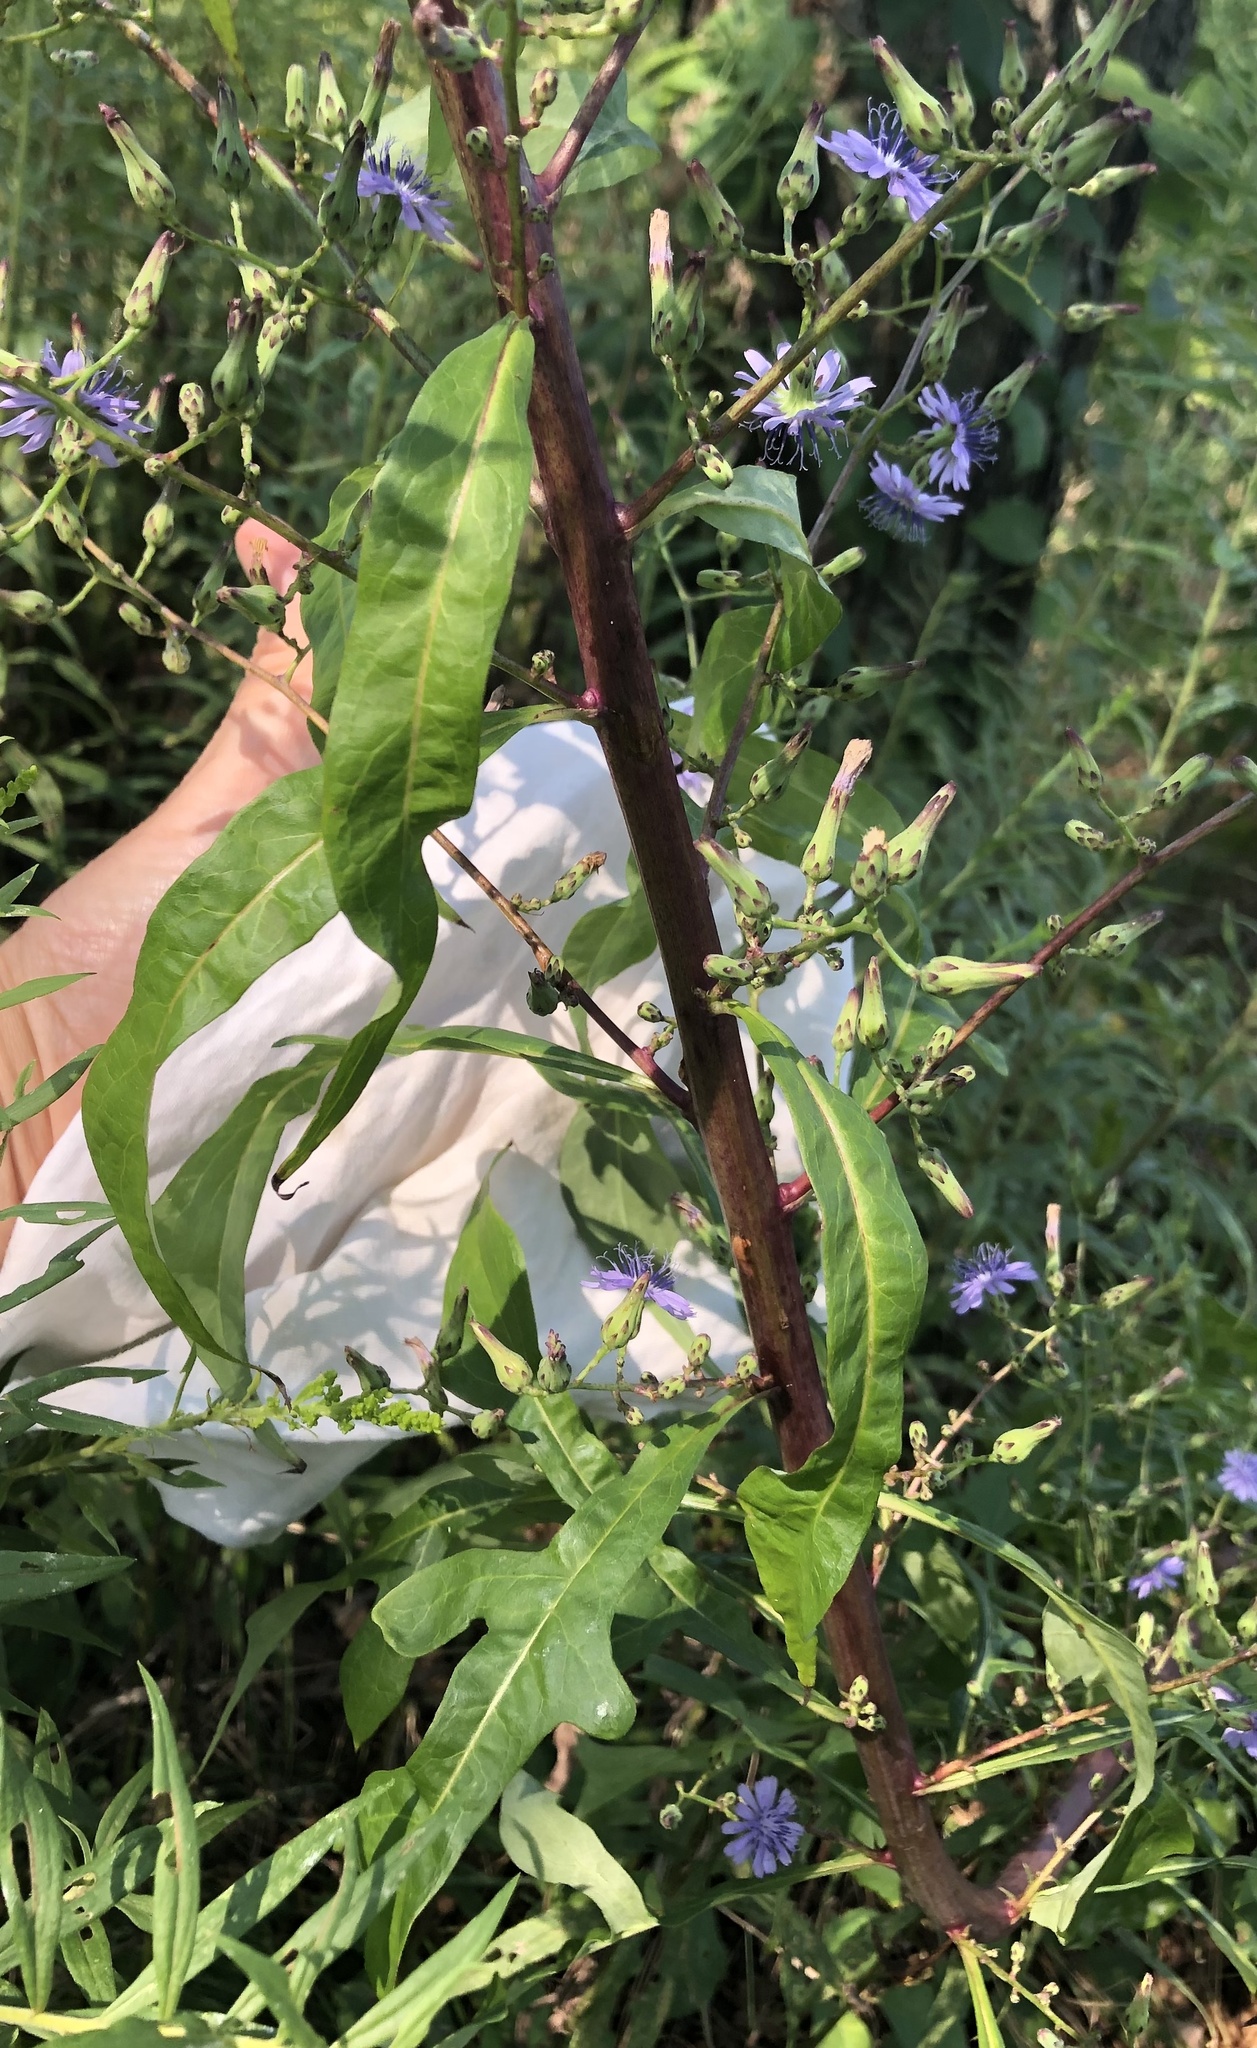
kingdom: Plantae
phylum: Tracheophyta
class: Magnoliopsida
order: Asterales
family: Asteraceae
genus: Lactuca
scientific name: Lactuca floridana
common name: Woodland lettuce
